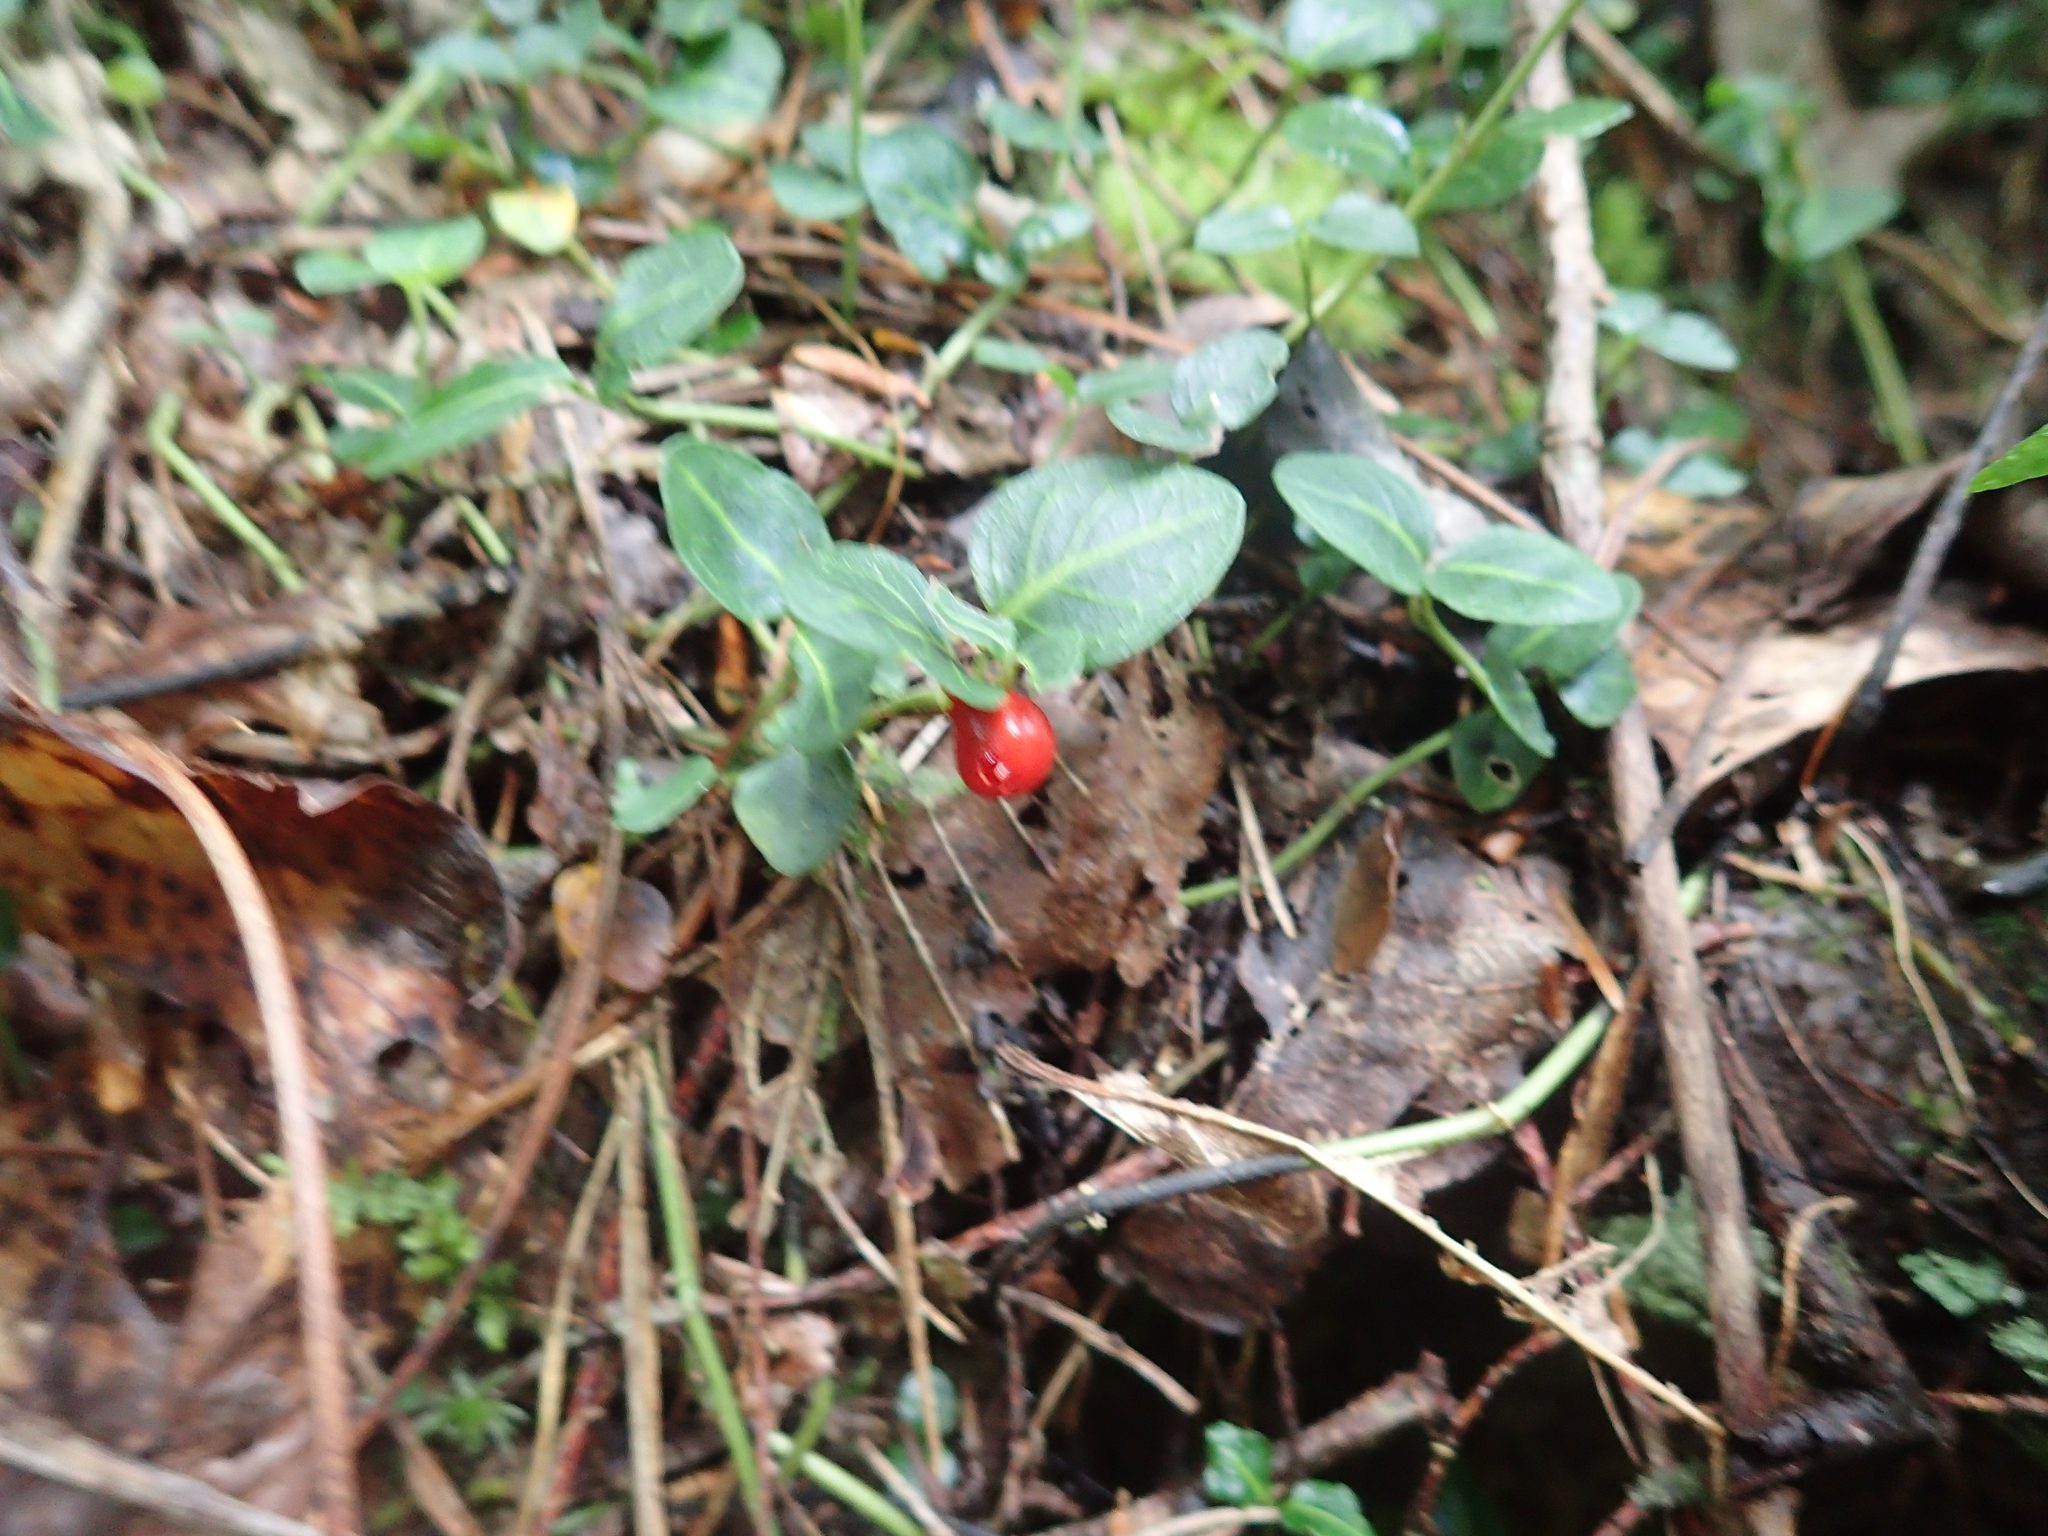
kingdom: Plantae
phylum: Tracheophyta
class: Magnoliopsida
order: Gentianales
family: Rubiaceae
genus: Mitchella
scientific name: Mitchella repens
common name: Partridge-berry
